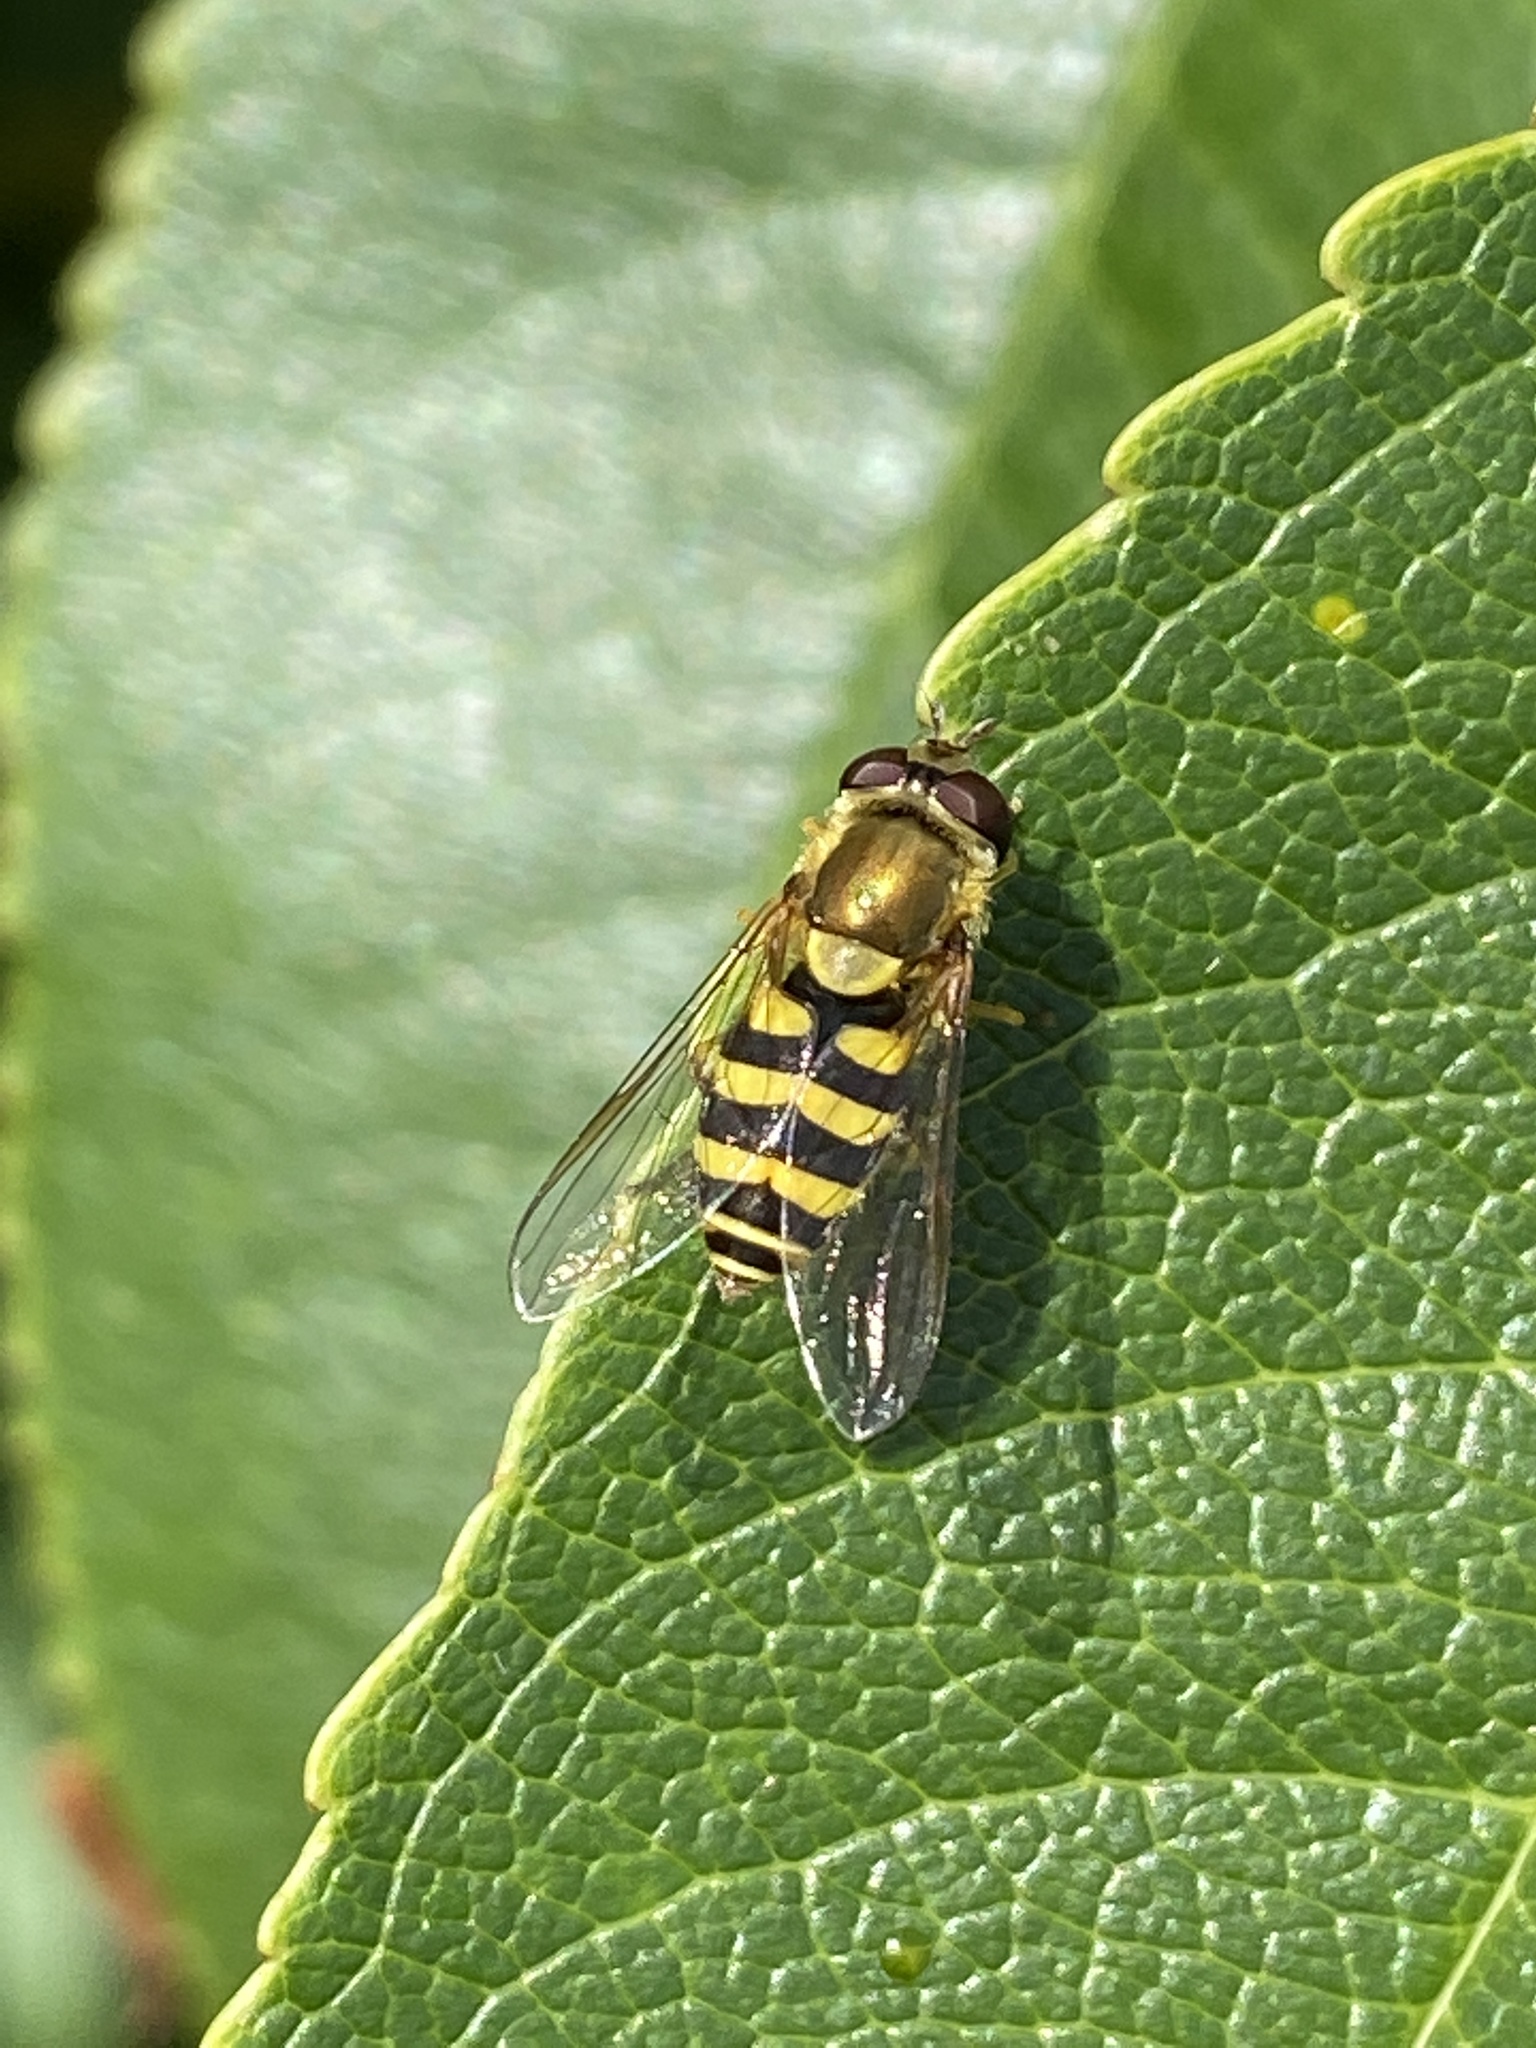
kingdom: Animalia
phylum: Arthropoda
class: Insecta
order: Diptera
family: Syrphidae
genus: Syrphus
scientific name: Syrphus
